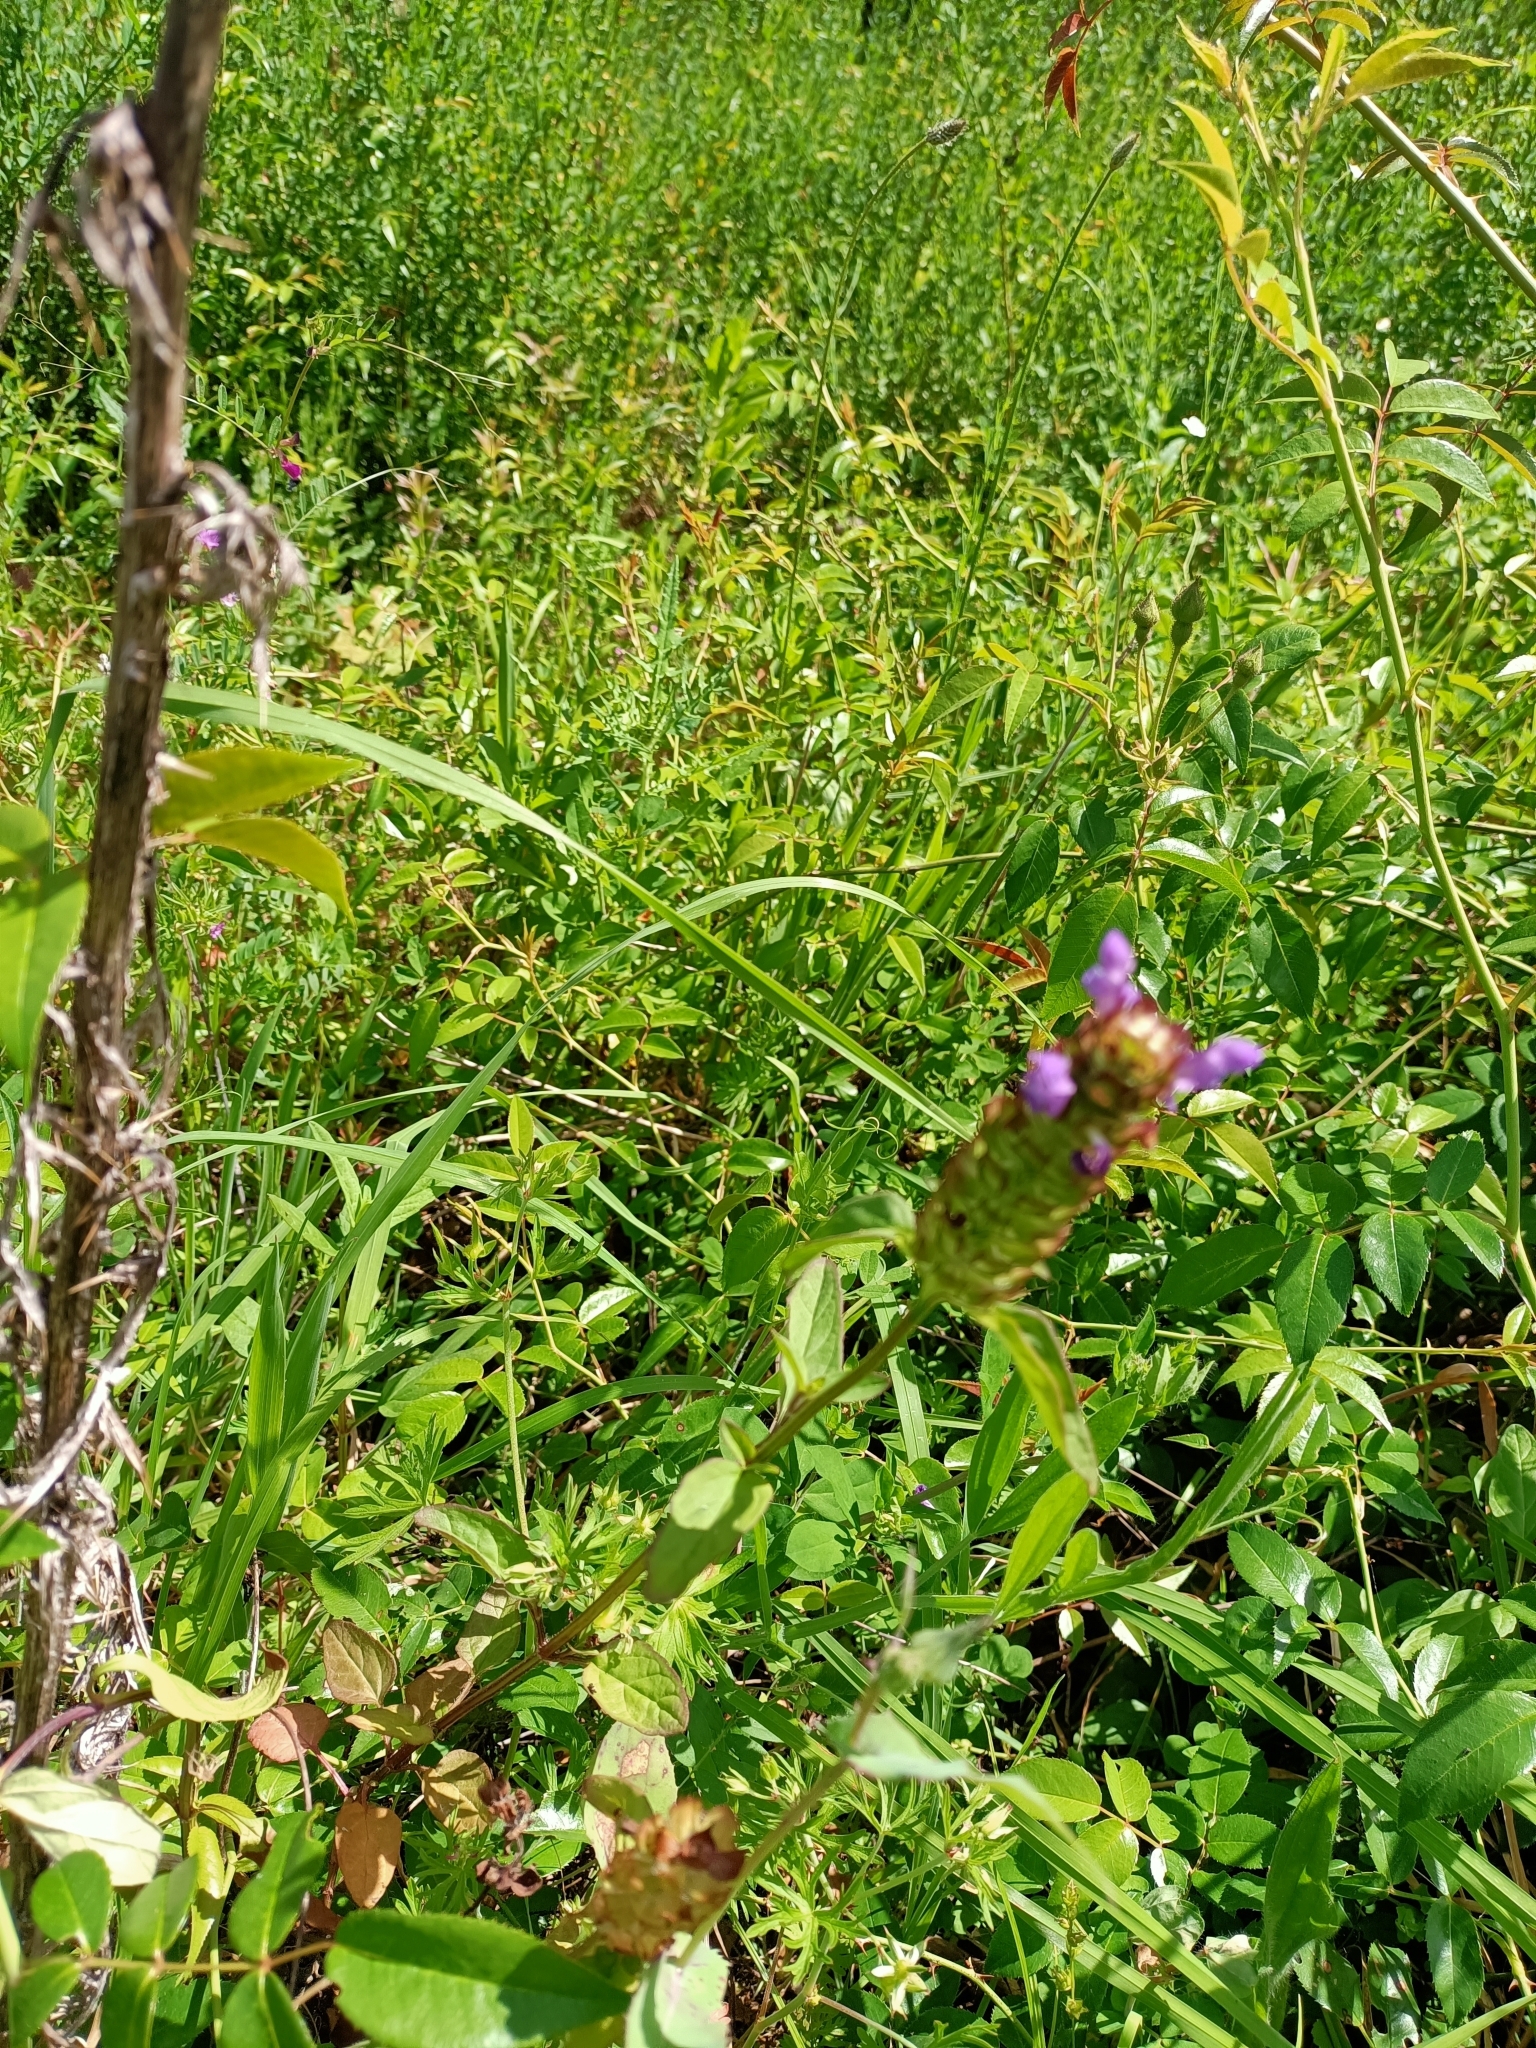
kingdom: Plantae
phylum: Tracheophyta
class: Magnoliopsida
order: Lamiales
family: Lamiaceae
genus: Prunella
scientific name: Prunella vulgaris
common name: Heal-all
